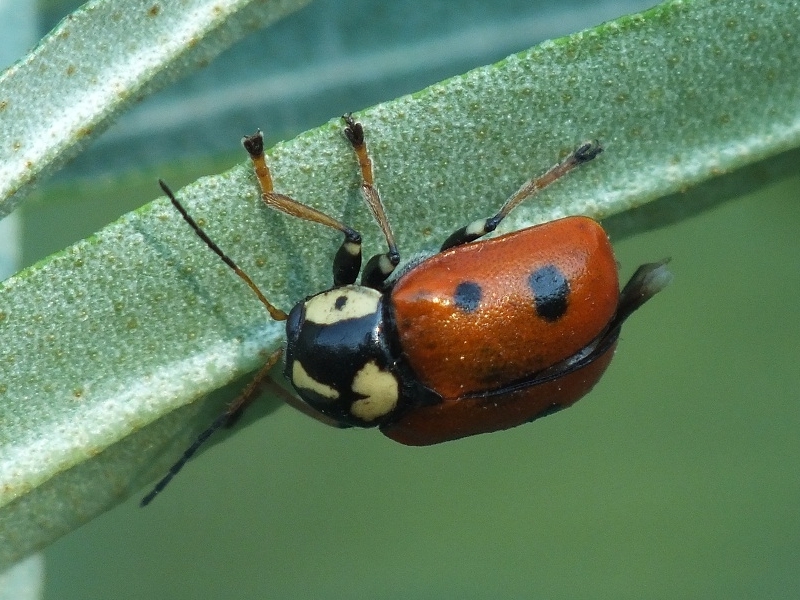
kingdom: Animalia
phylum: Arthropoda
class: Insecta
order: Coleoptera
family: Chrysomelidae
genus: Cryptocephalus
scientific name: Cryptocephalus cordiger
